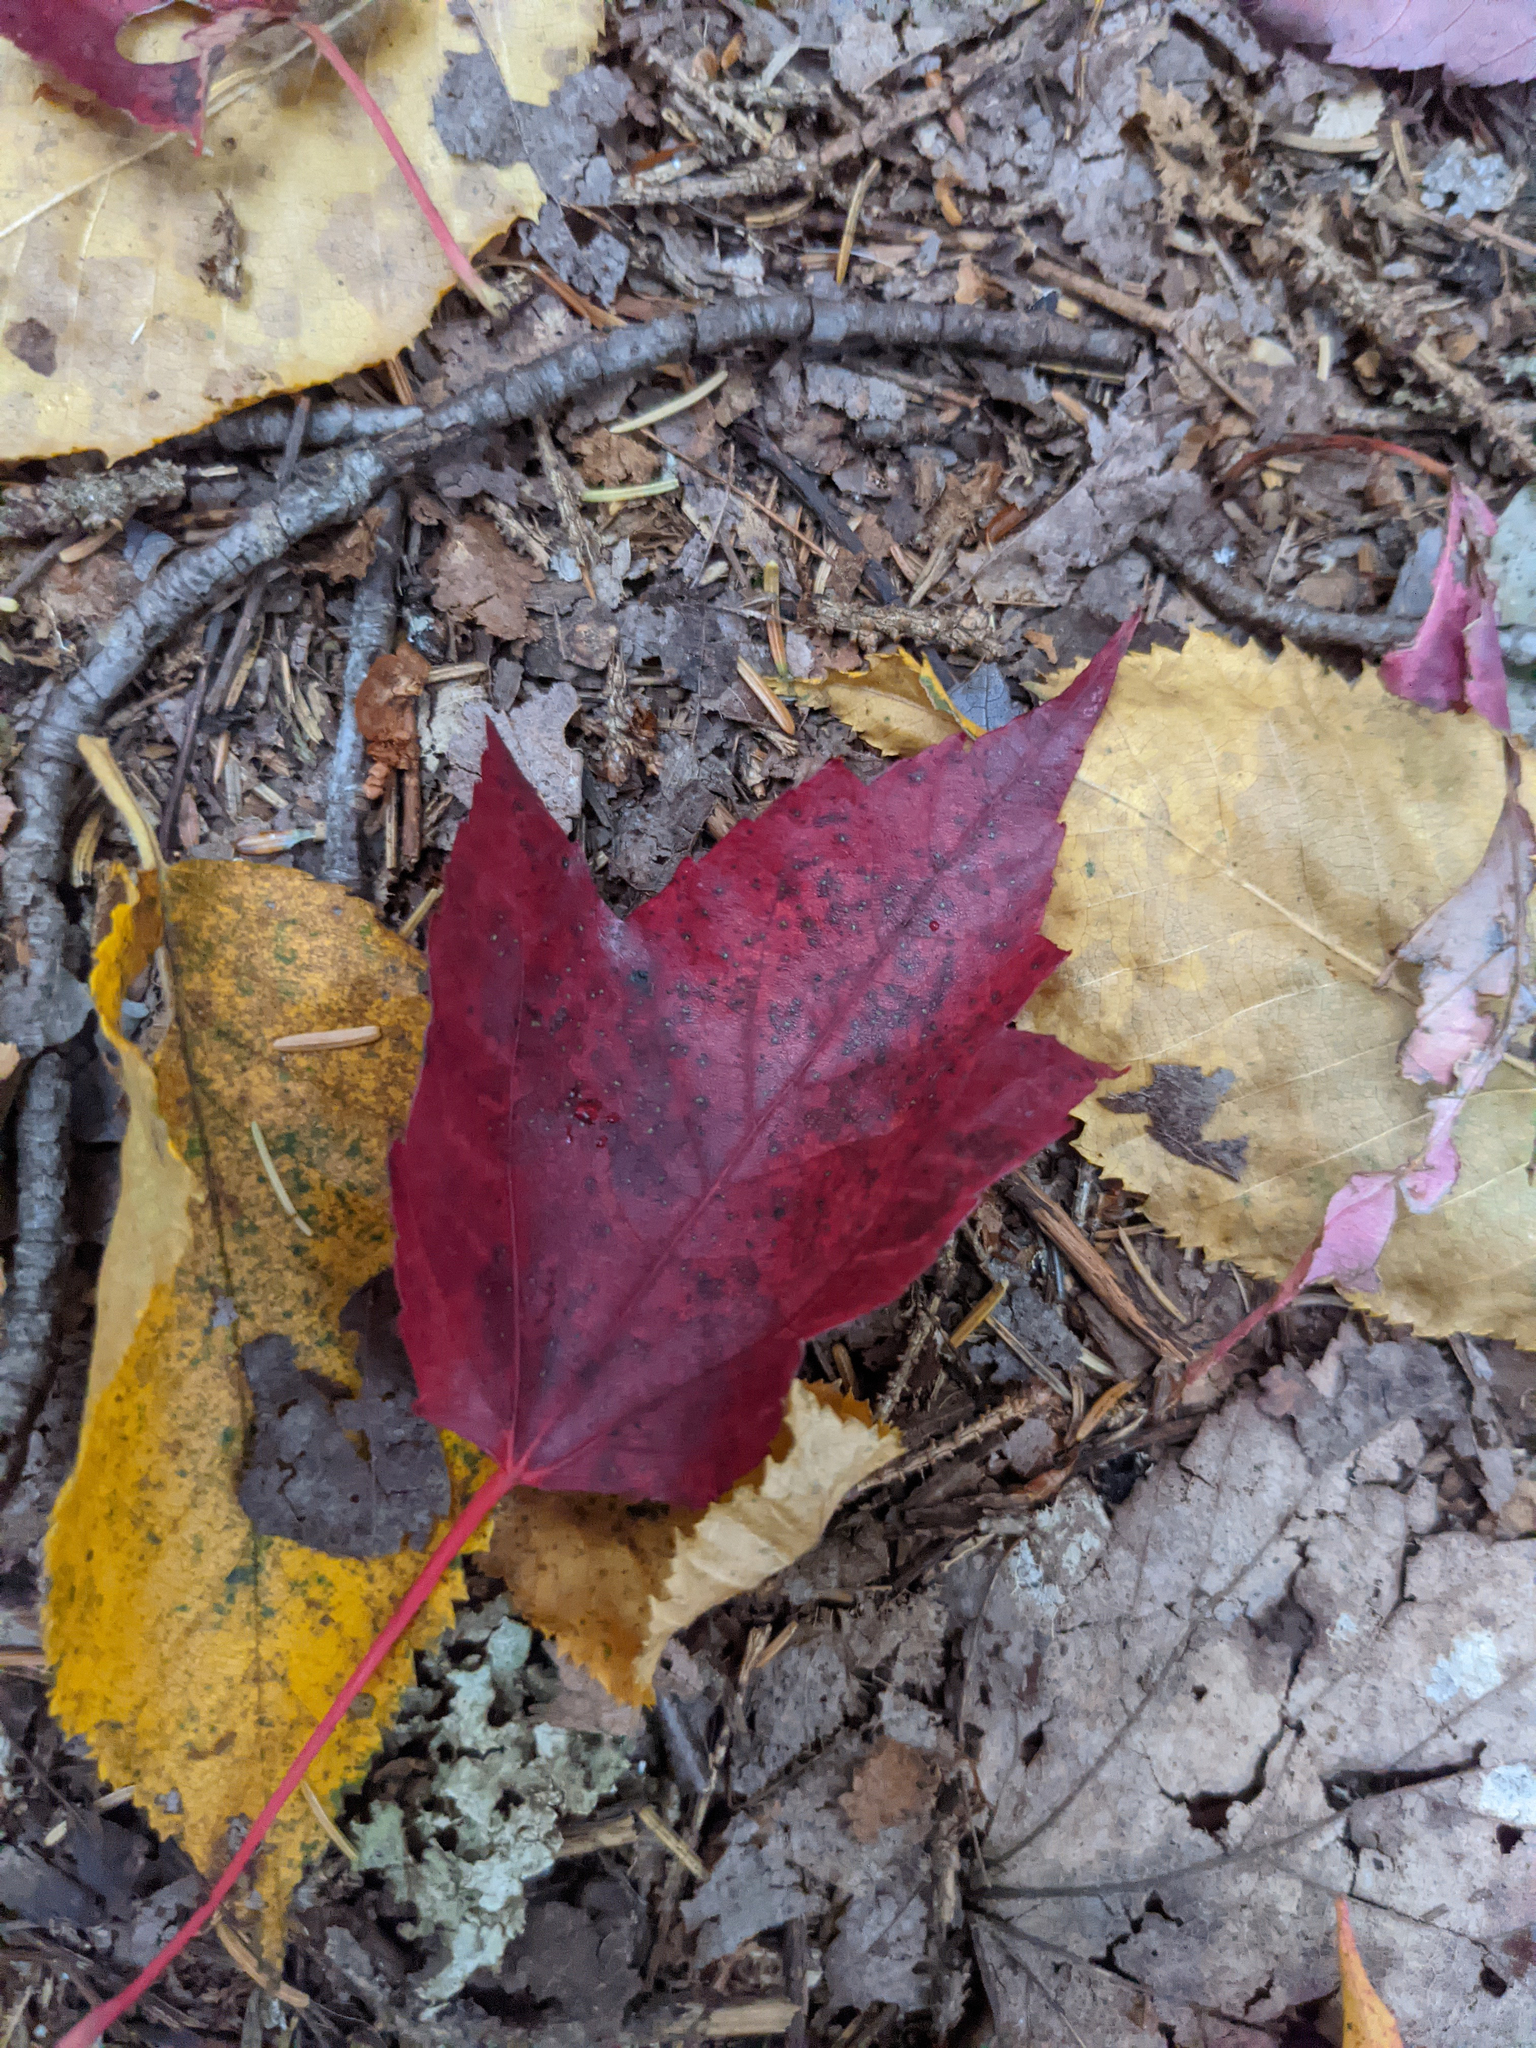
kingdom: Plantae
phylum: Tracheophyta
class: Magnoliopsida
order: Sapindales
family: Sapindaceae
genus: Acer
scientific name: Acer rubrum
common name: Red maple
